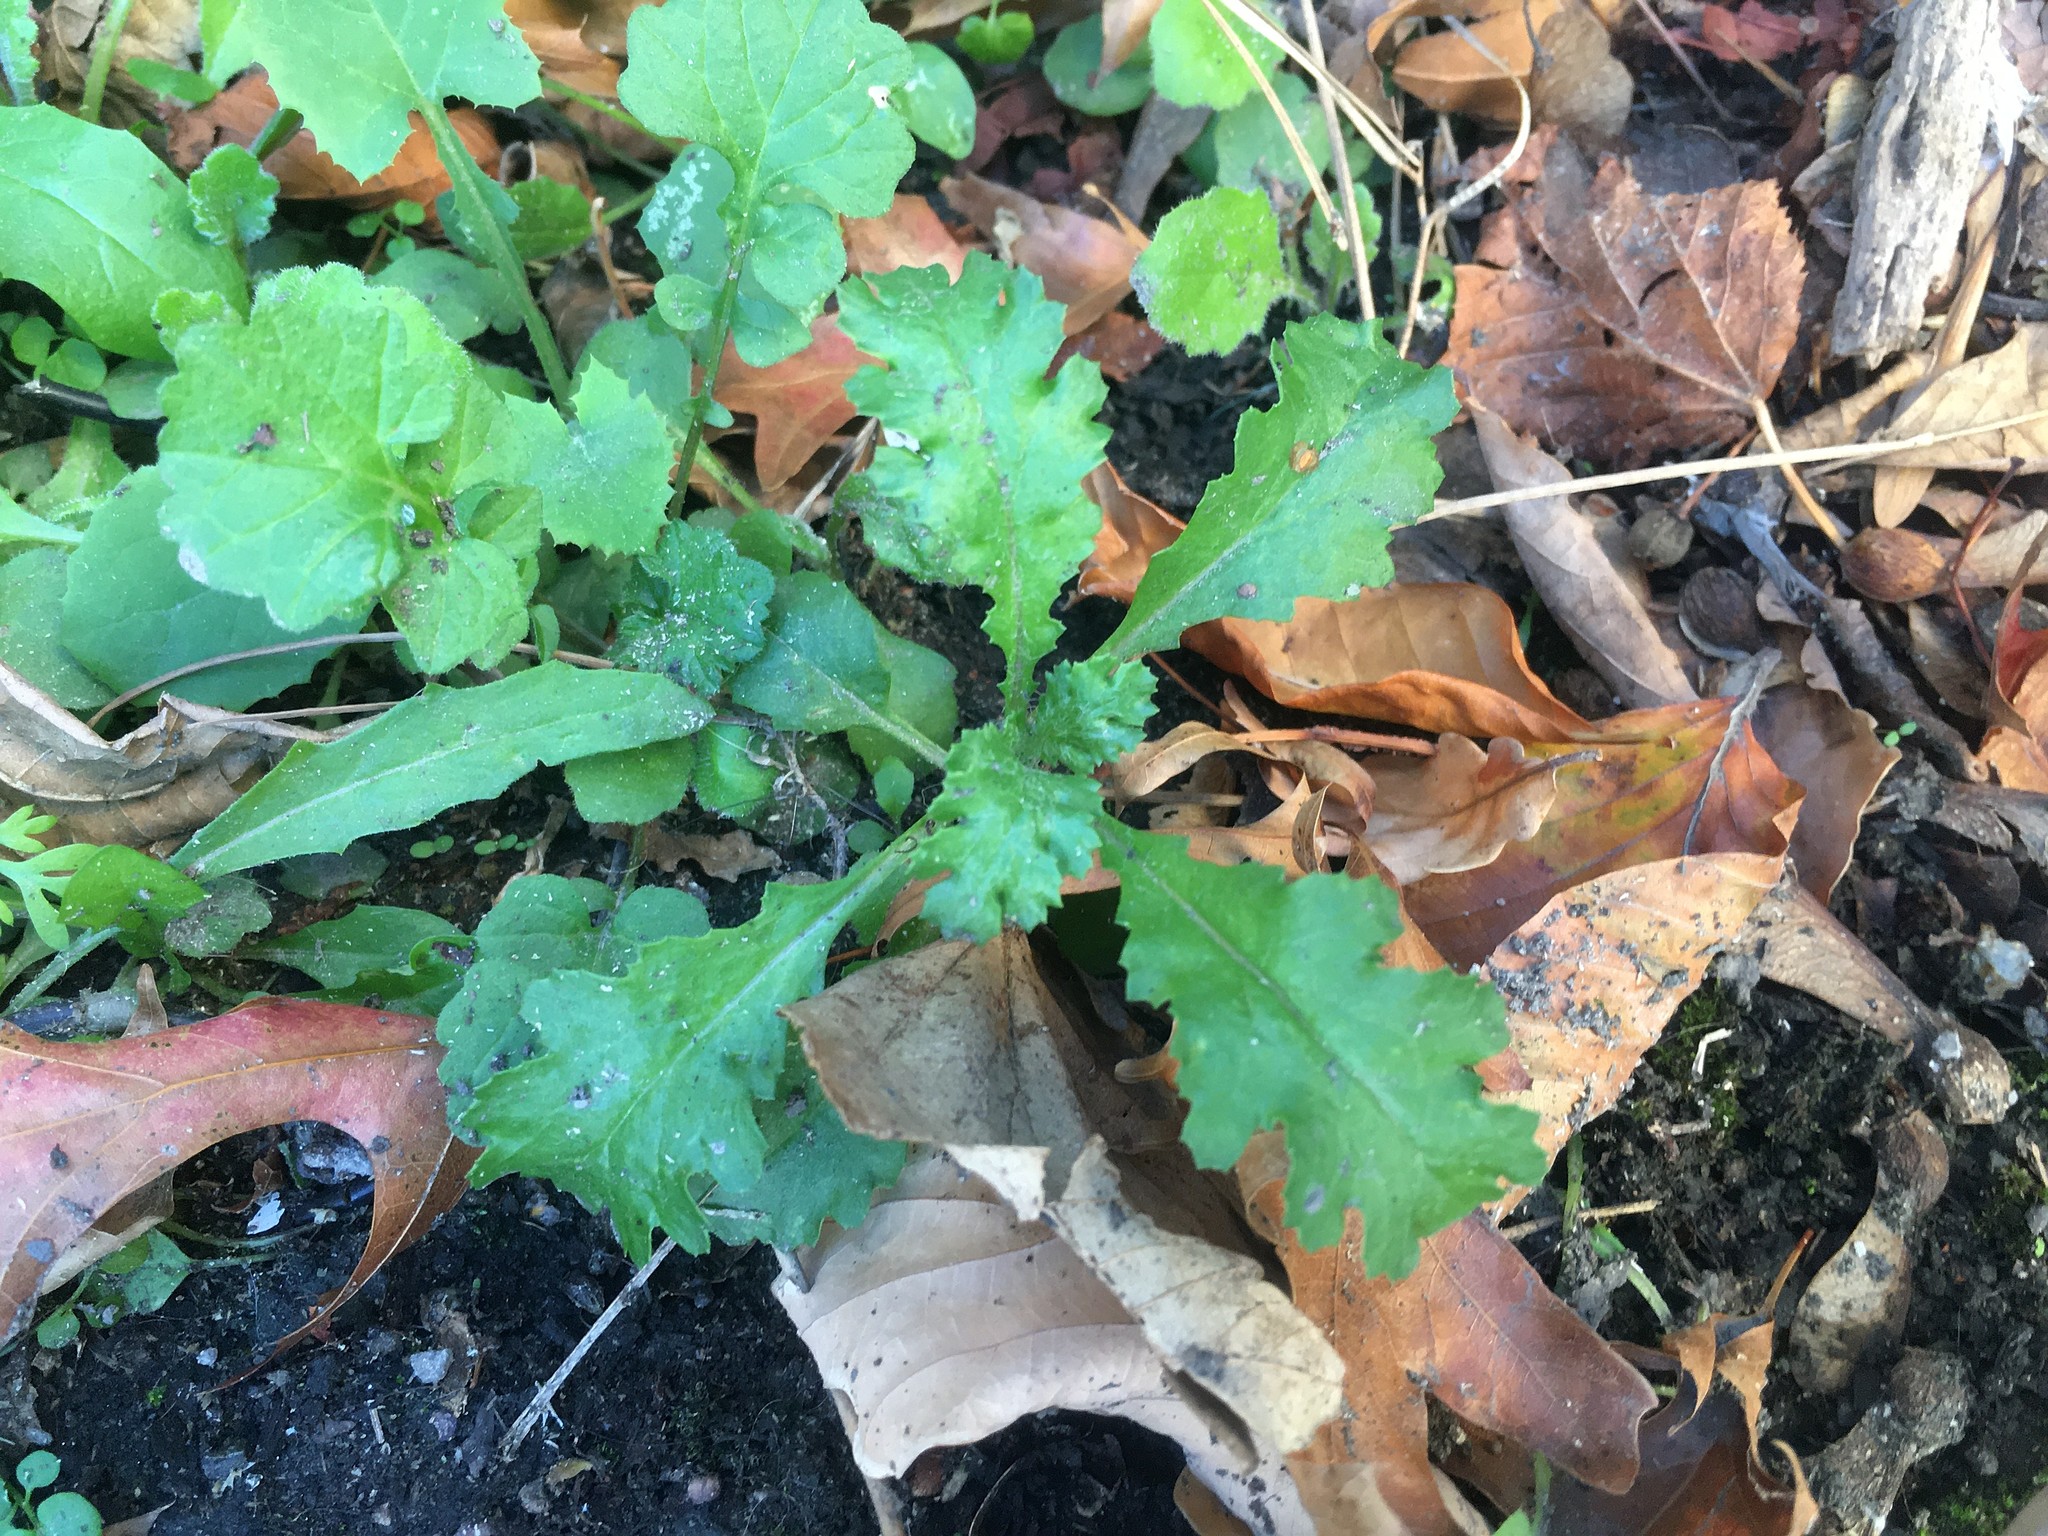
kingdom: Plantae
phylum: Tracheophyta
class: Magnoliopsida
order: Asterales
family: Asteraceae
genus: Senecio
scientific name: Senecio vulgaris
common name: Old-man-in-the-spring
